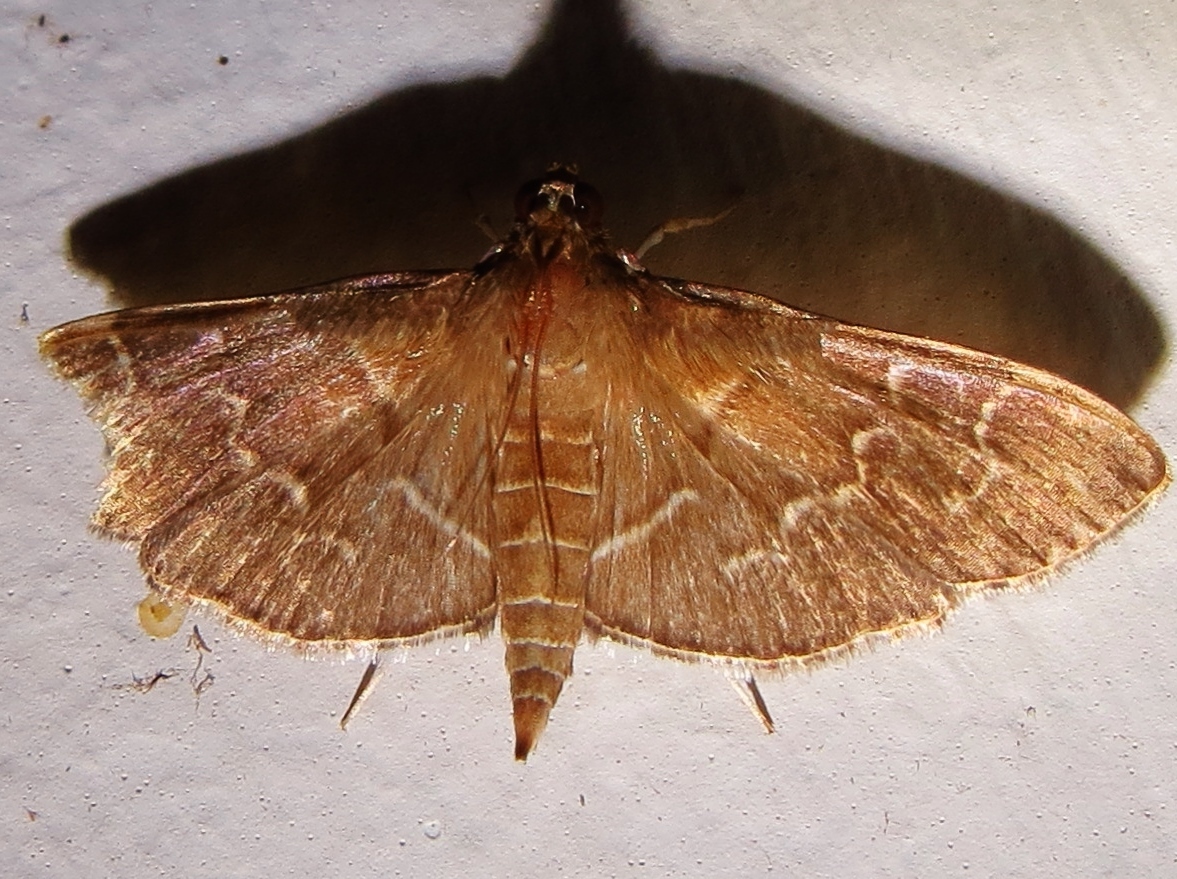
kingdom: Animalia
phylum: Arthropoda
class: Insecta
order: Lepidoptera
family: Crambidae
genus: Pilocrocis
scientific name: Pilocrocis ramentalis
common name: Scraped pilocrocis
